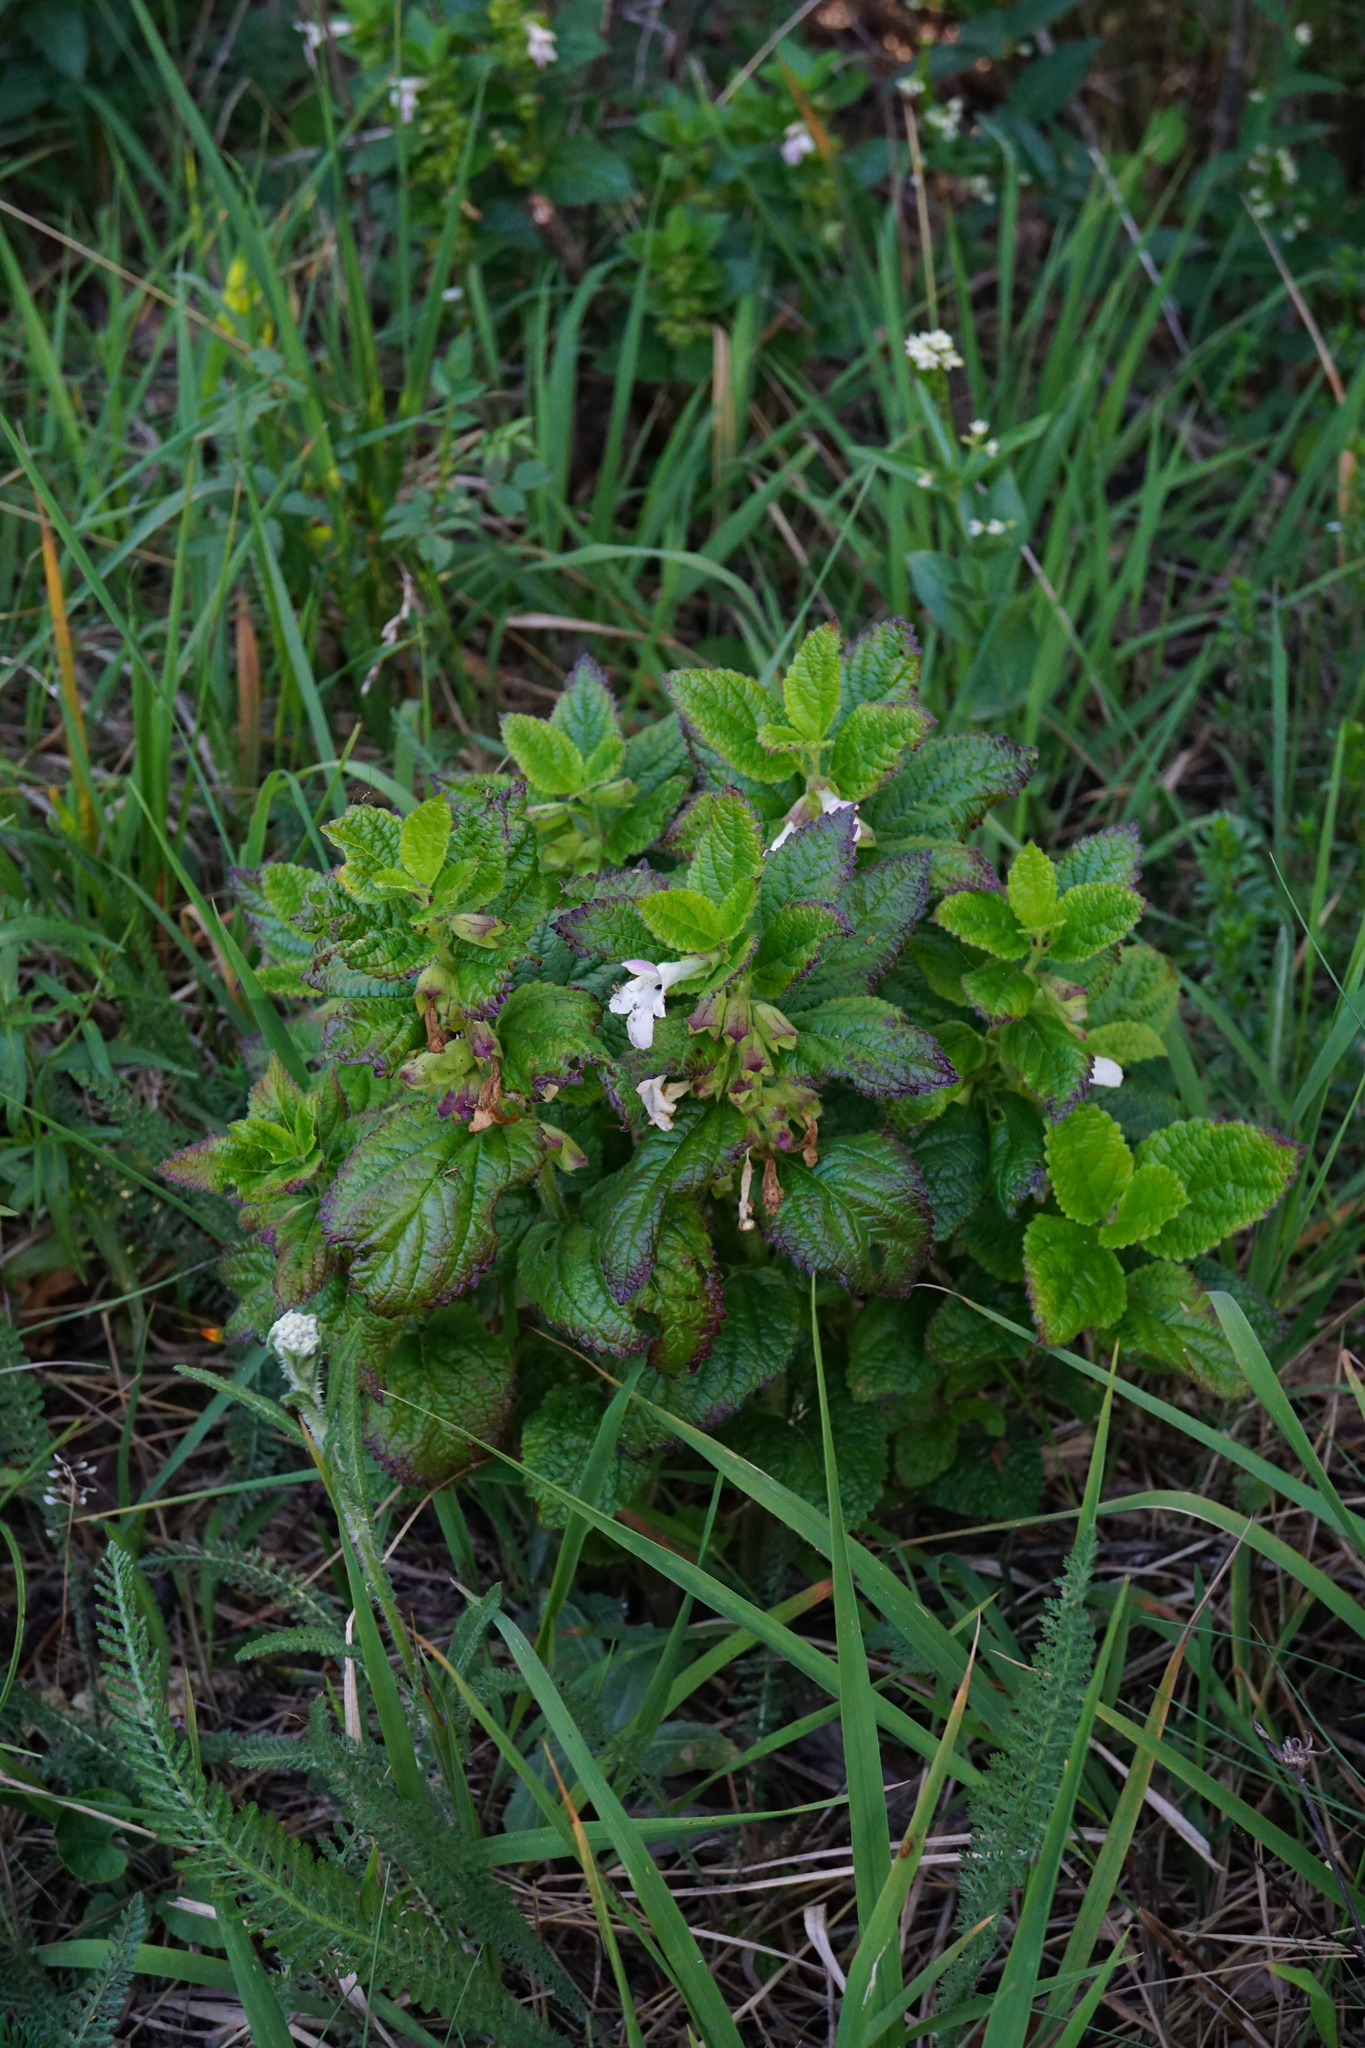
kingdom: Plantae
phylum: Tracheophyta
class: Magnoliopsida
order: Lamiales
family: Lamiaceae
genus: Melittis
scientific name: Melittis melissophyllum
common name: Bastard balm
